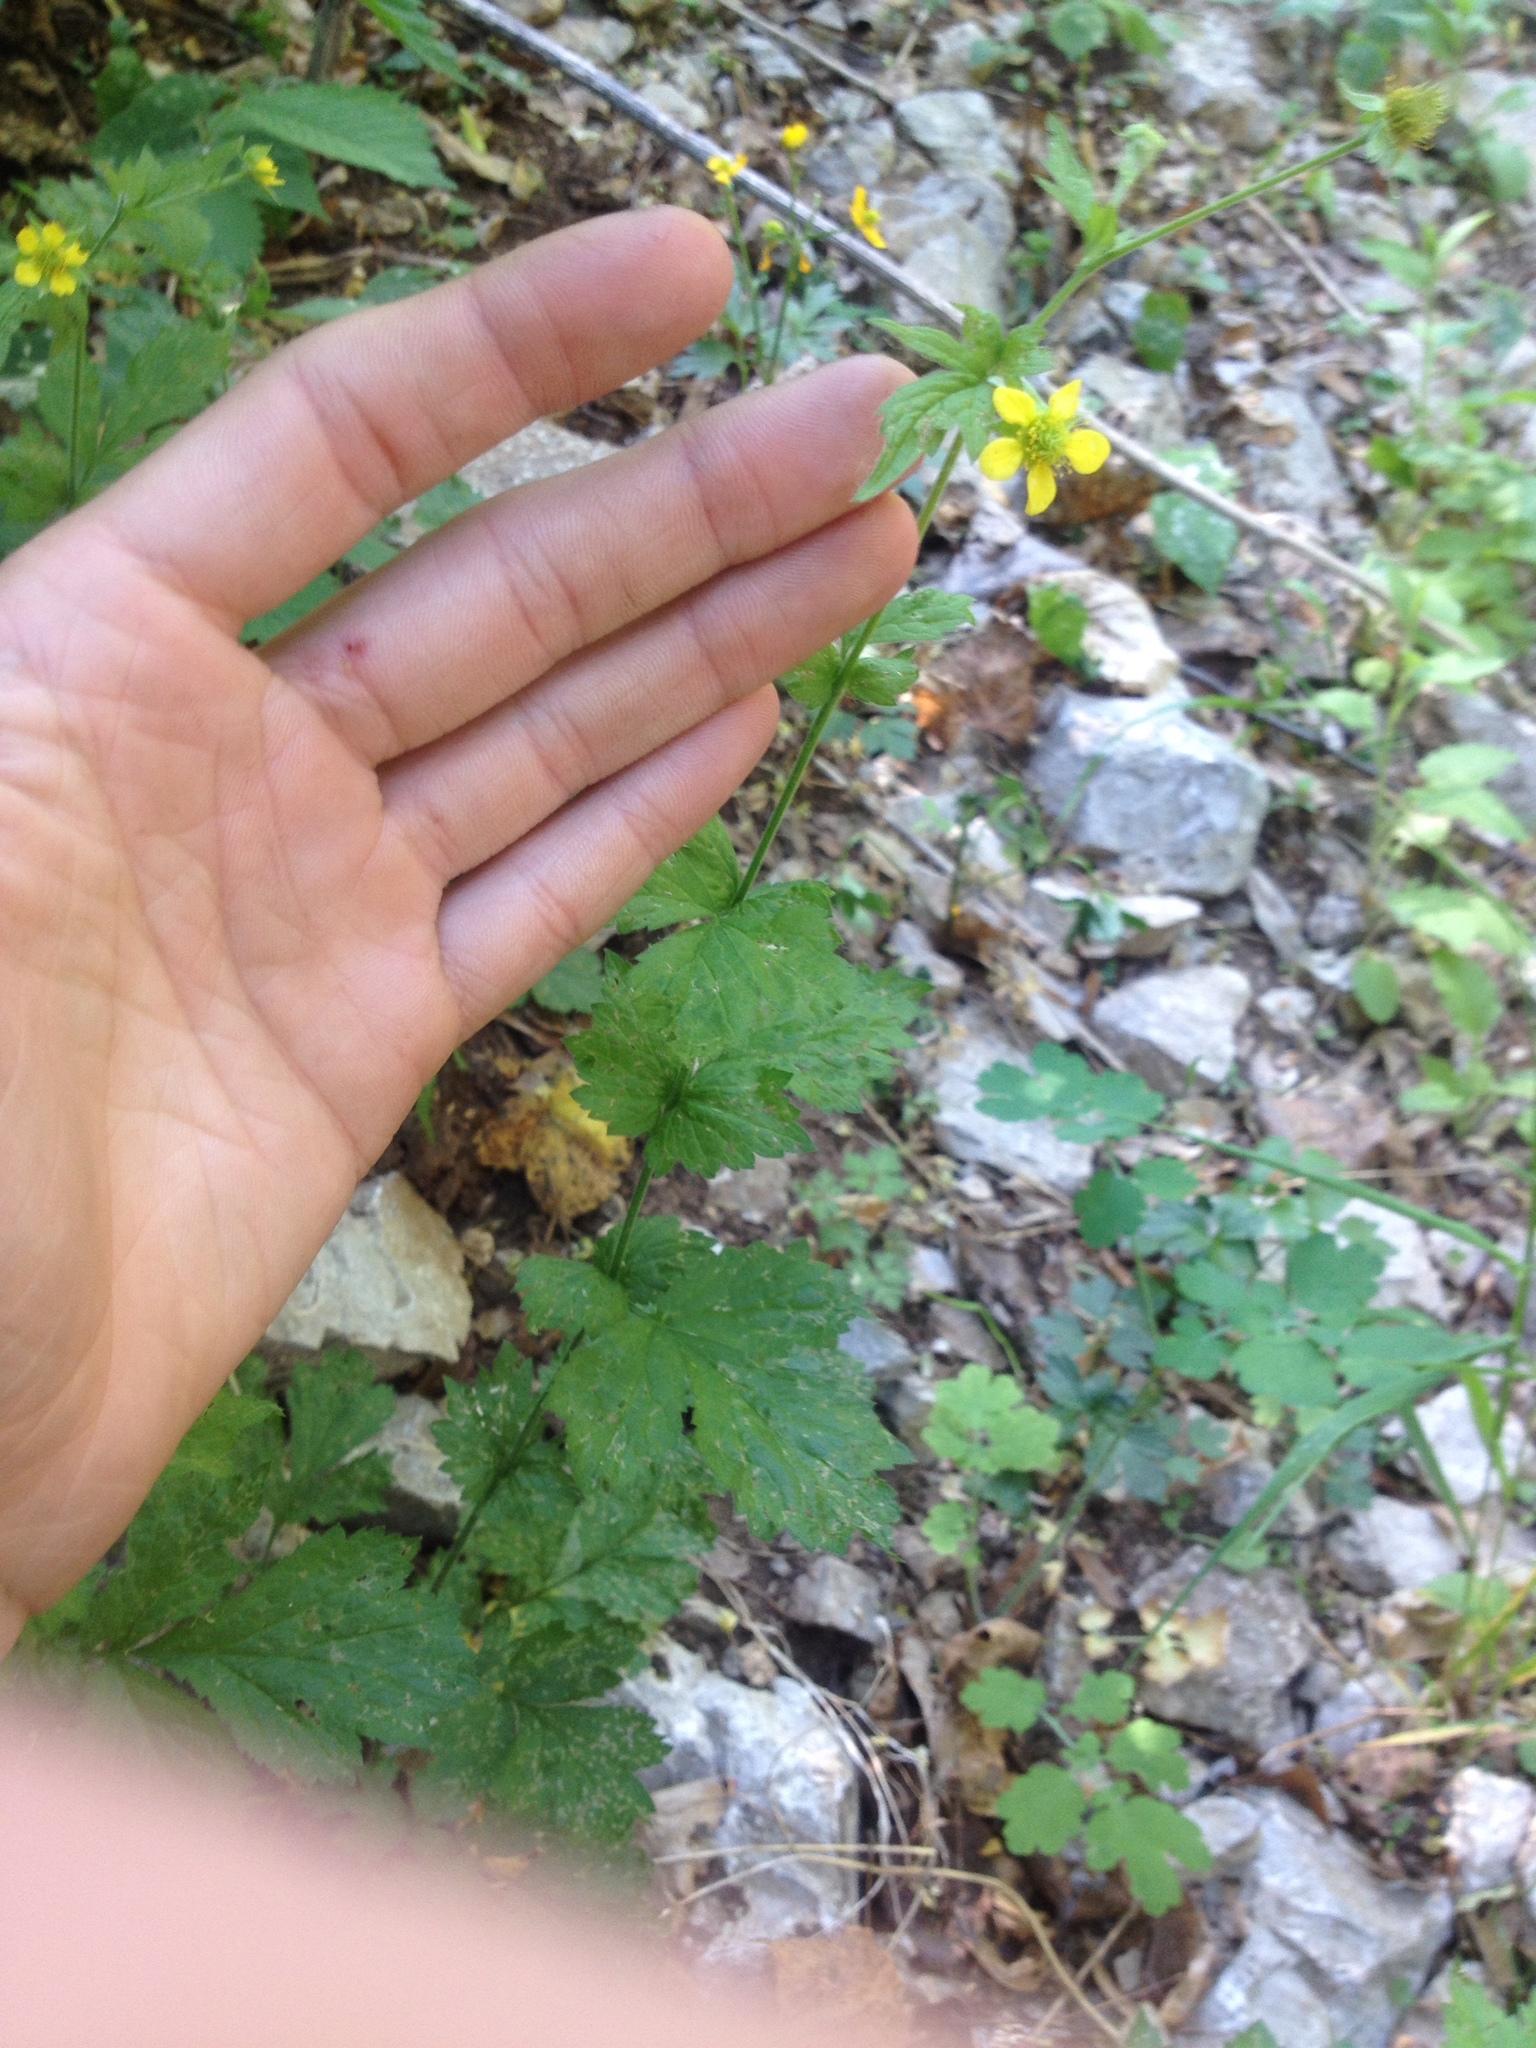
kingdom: Plantae
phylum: Tracheophyta
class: Magnoliopsida
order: Rosales
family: Rosaceae
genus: Geum
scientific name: Geum urbanum
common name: Wood avens
